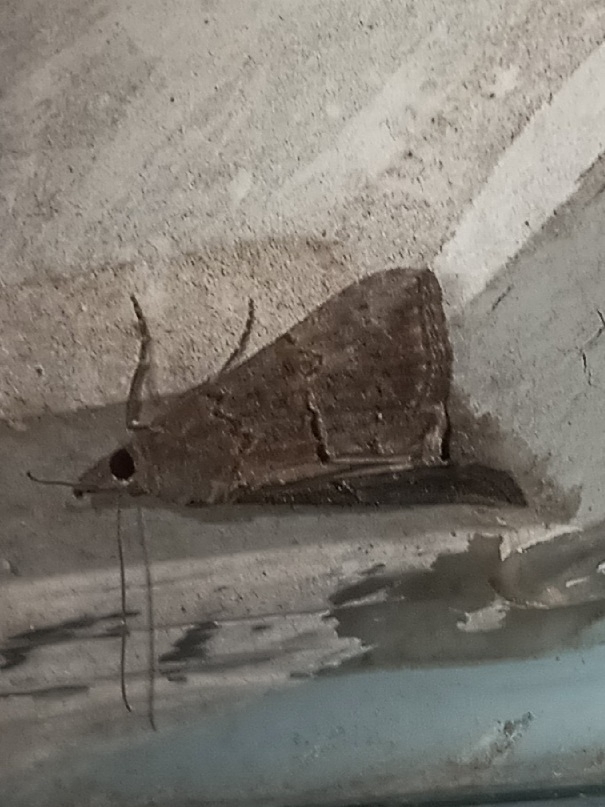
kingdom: Animalia
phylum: Arthropoda
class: Insecta
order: Lepidoptera
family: Erebidae
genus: Hypena
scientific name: Hypena scabra
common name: Green cloverworm
